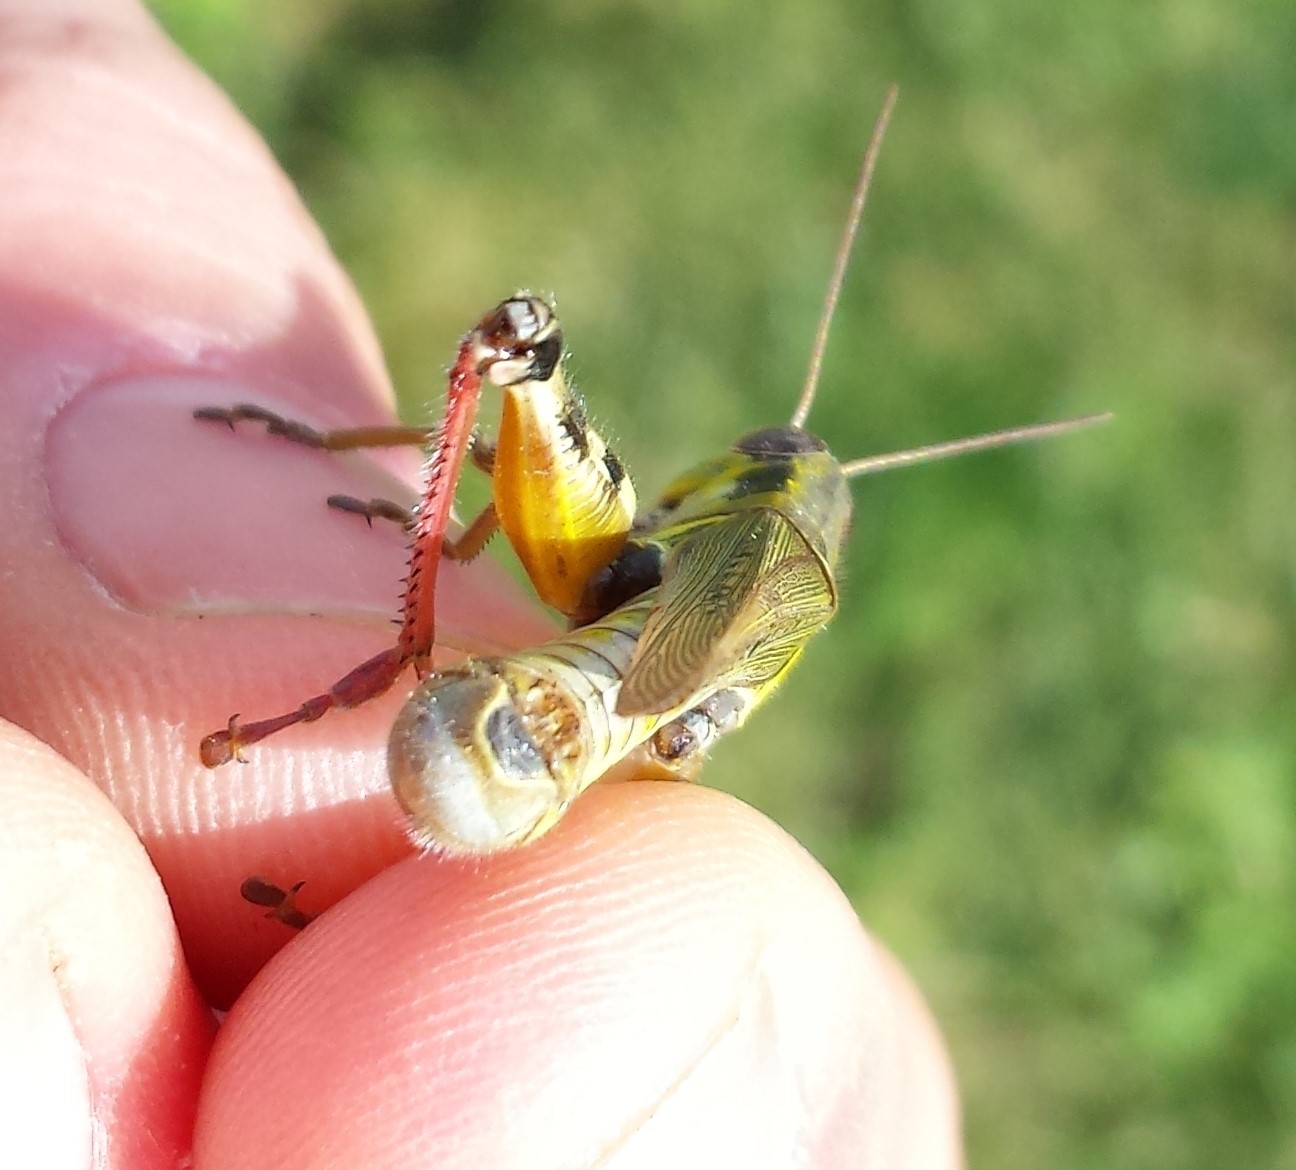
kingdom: Animalia
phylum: Arthropoda
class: Insecta
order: Orthoptera
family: Acrididae
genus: Melanoplus
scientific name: Melanoplus femurrubrum
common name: Red-legged grasshopper
